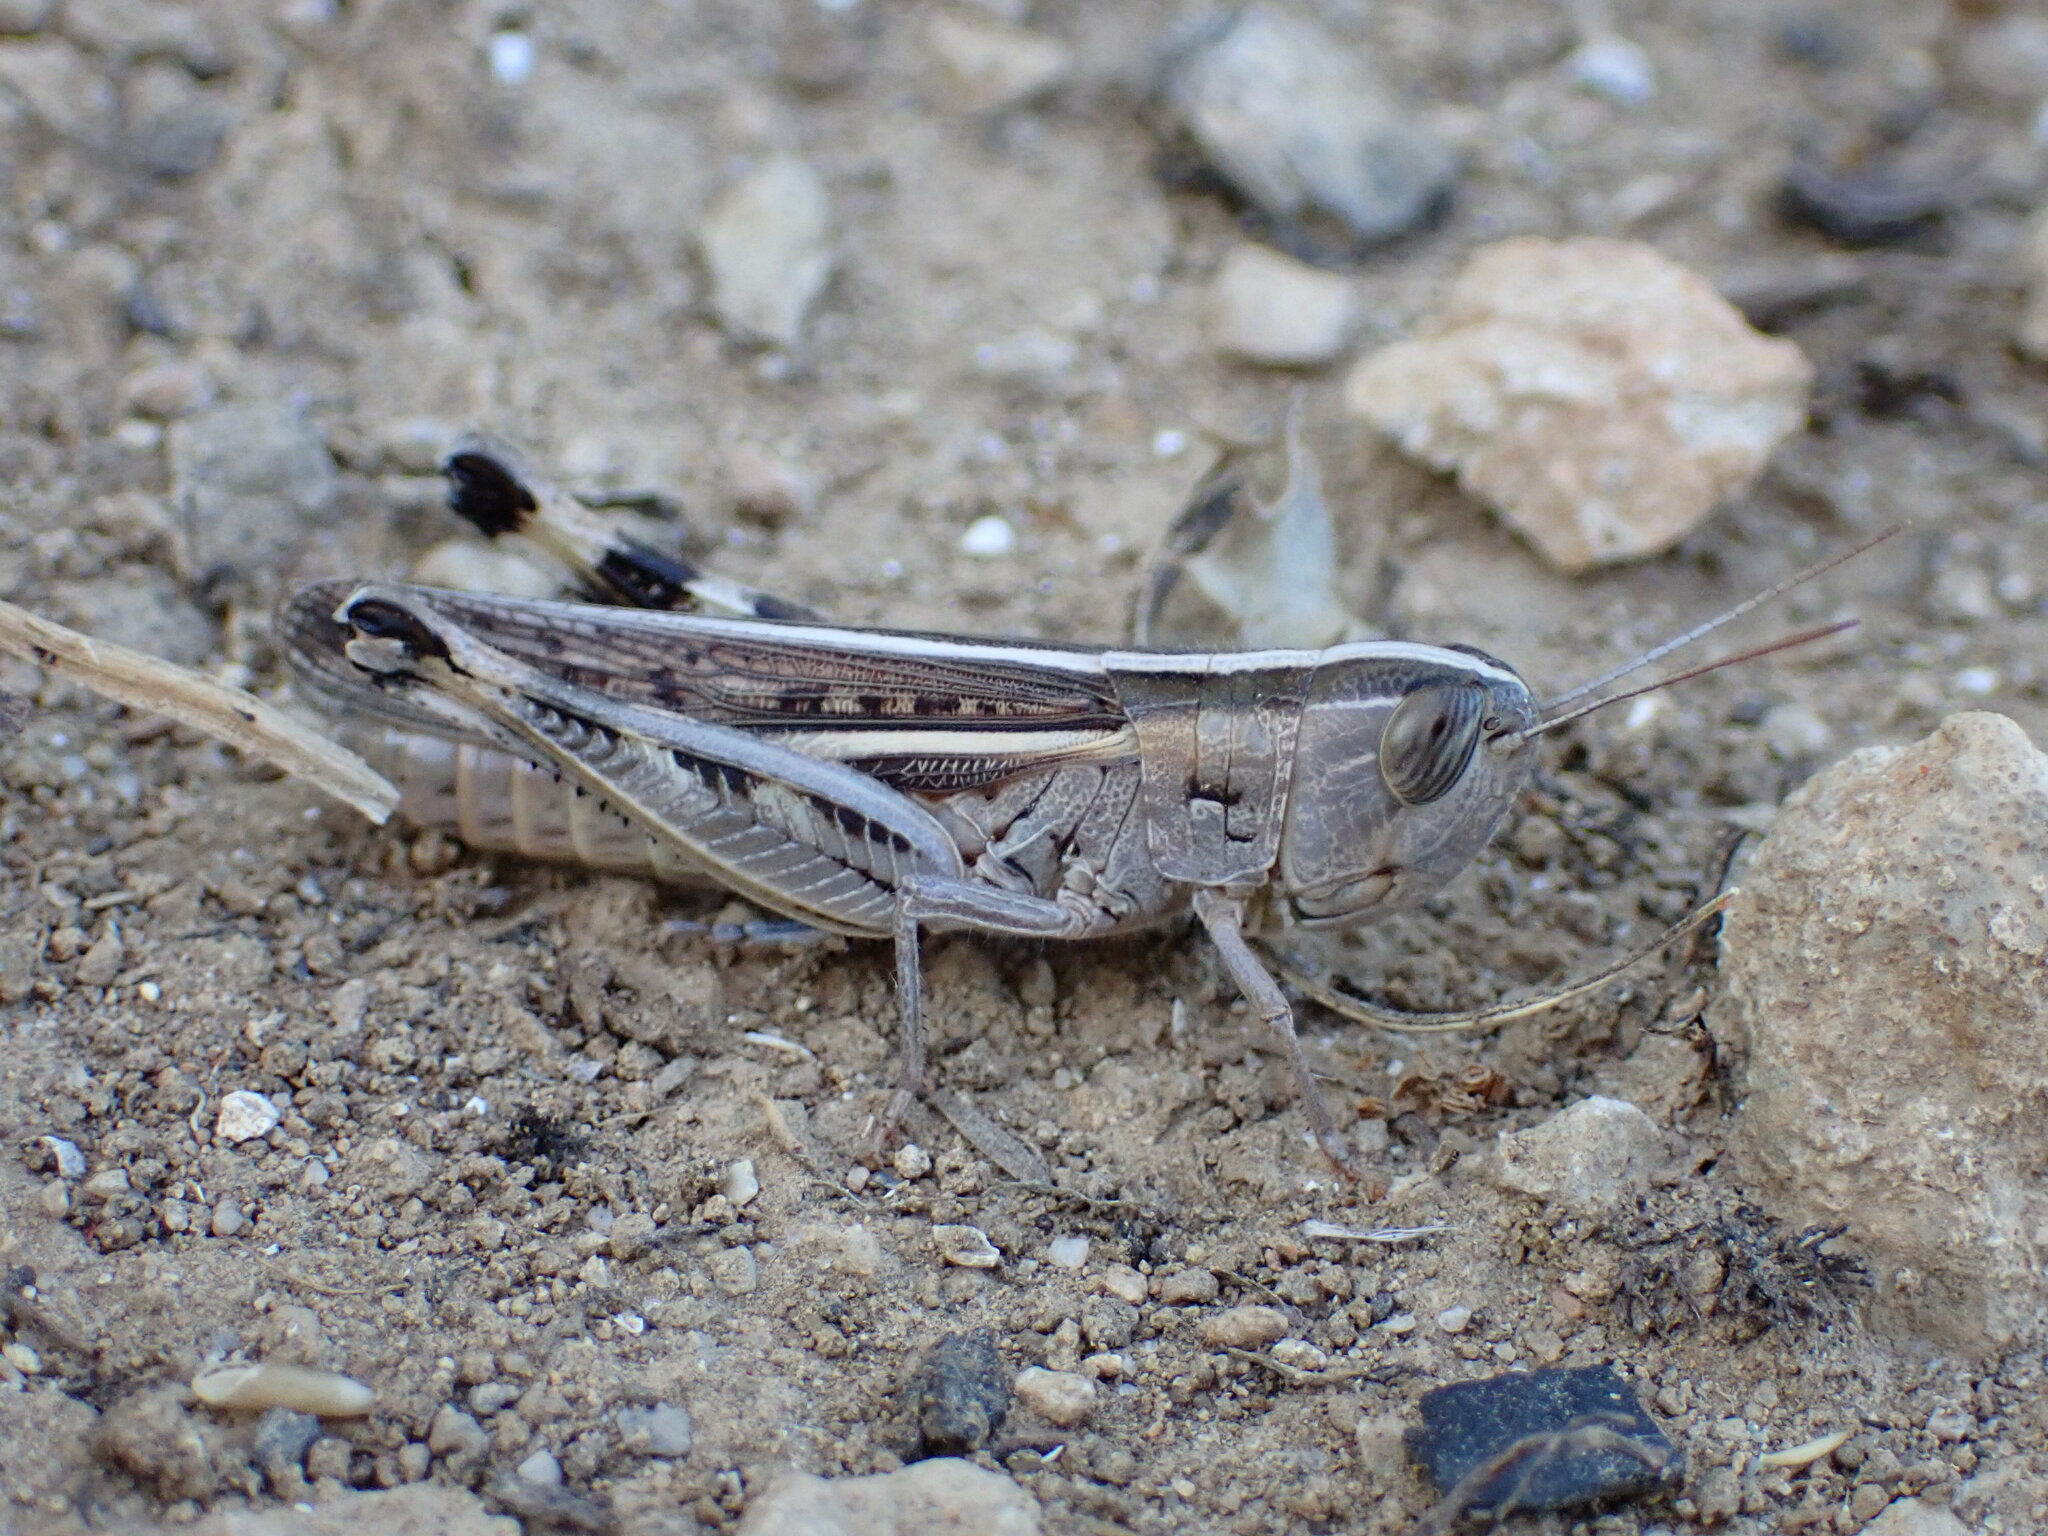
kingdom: Animalia
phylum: Arthropoda
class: Insecta
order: Orthoptera
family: Acrididae
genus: Ramburiella
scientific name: Ramburiella hispanica
